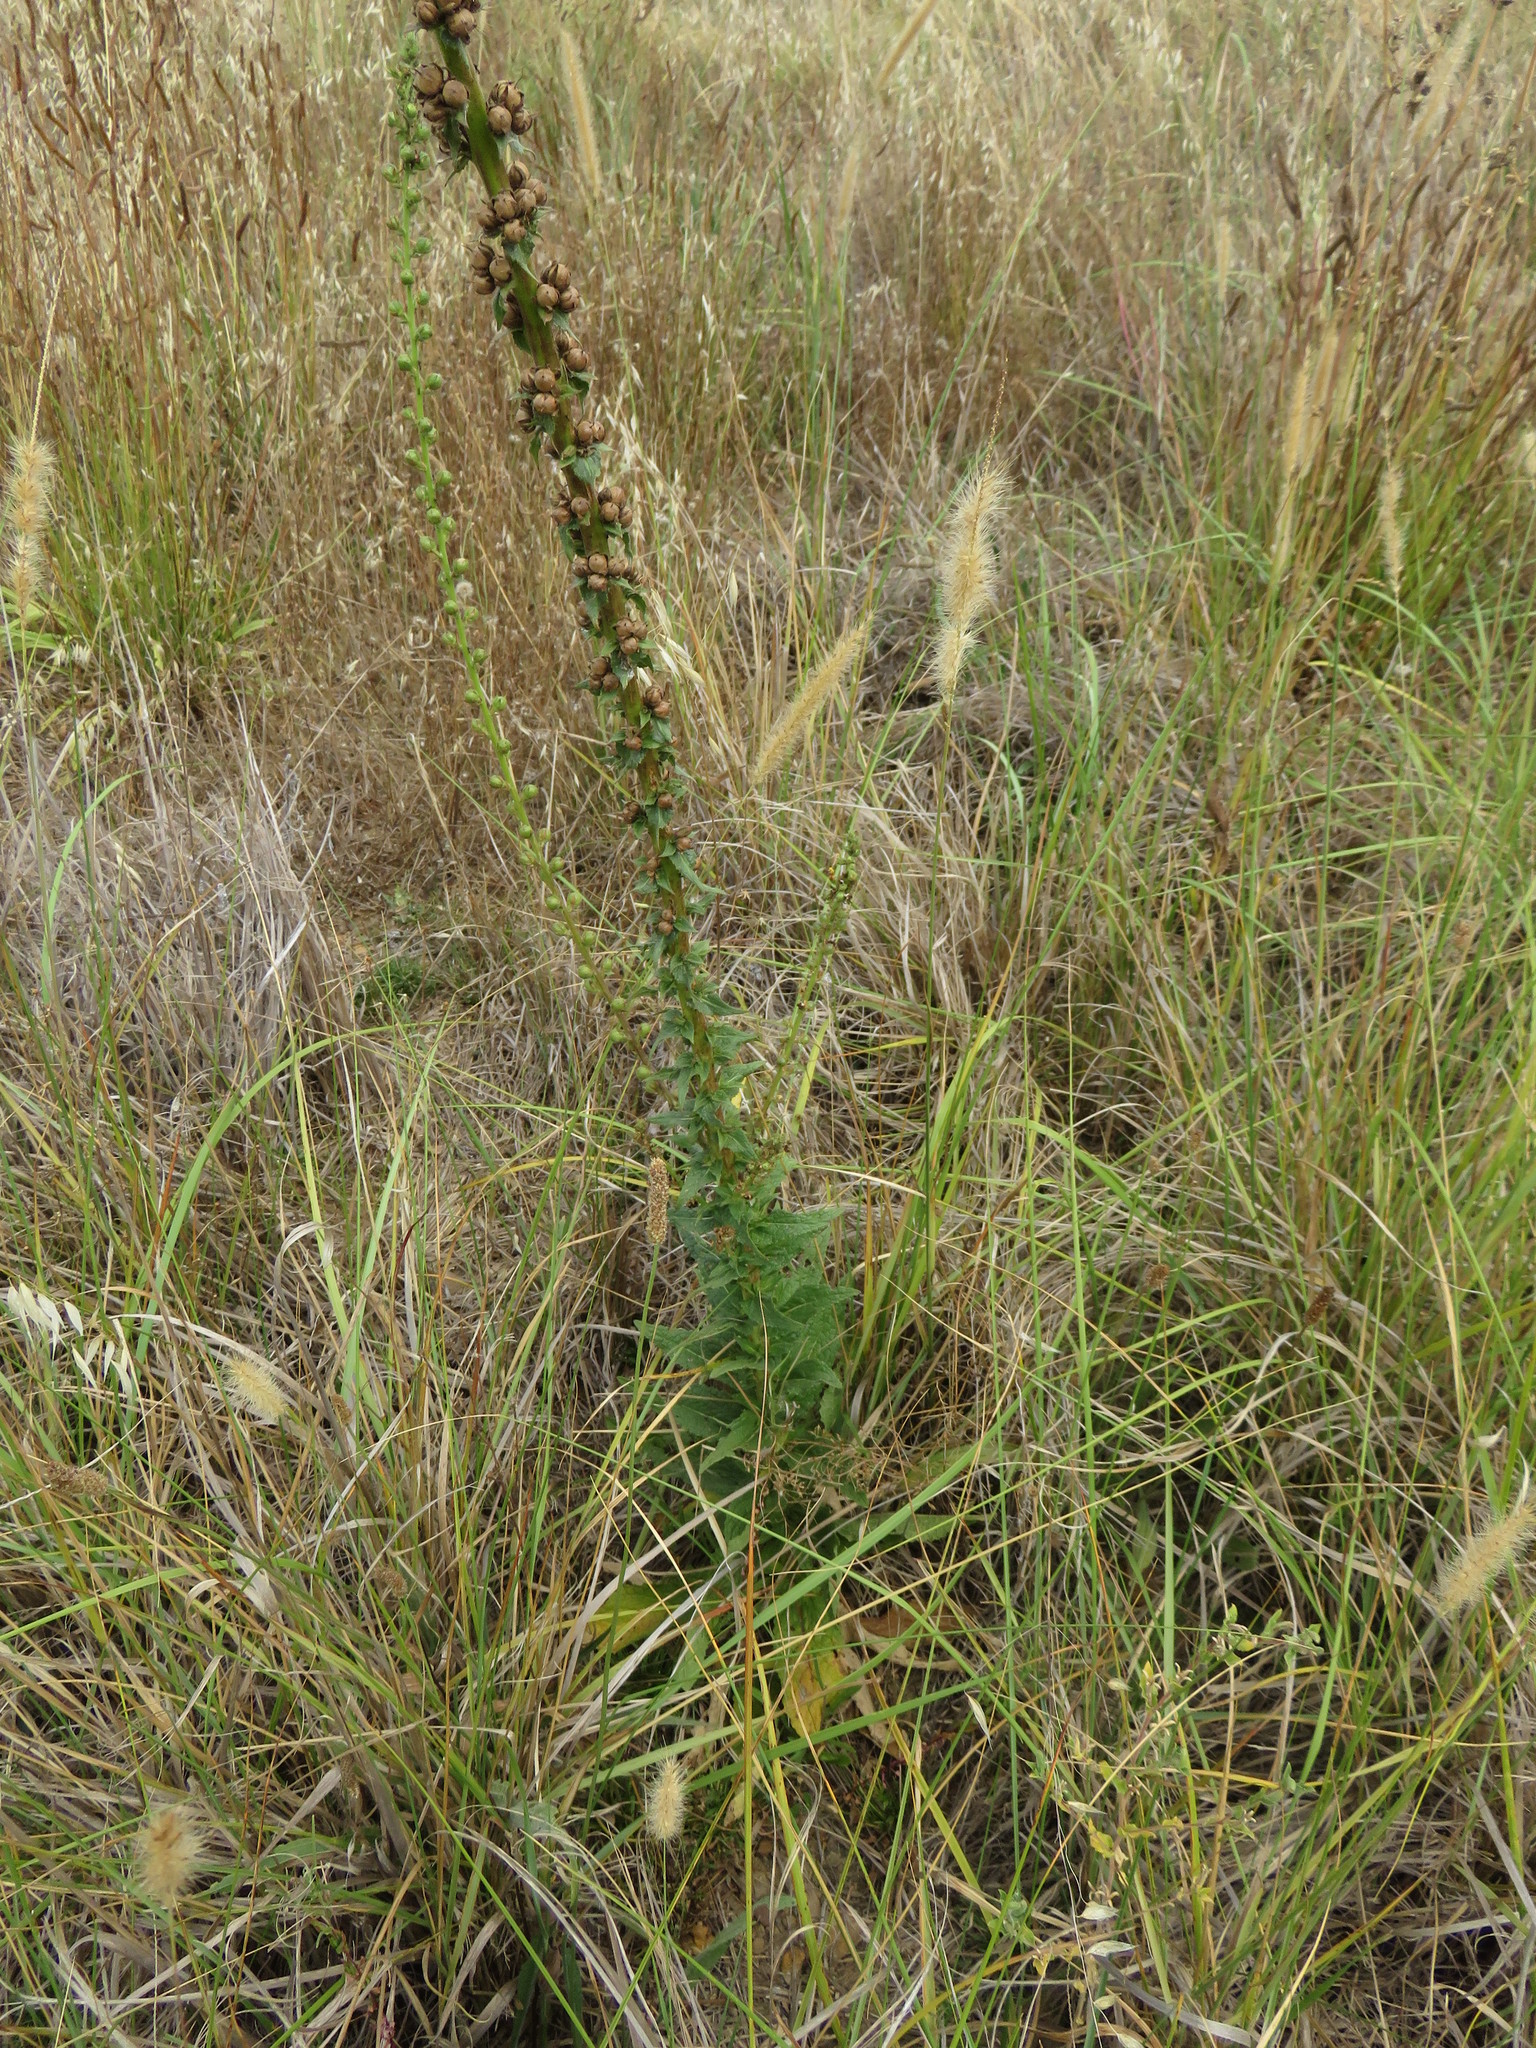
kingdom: Plantae
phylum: Tracheophyta
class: Magnoliopsida
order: Lamiales
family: Scrophulariaceae
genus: Verbascum
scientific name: Verbascum virgatum
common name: Twiggy mullein
